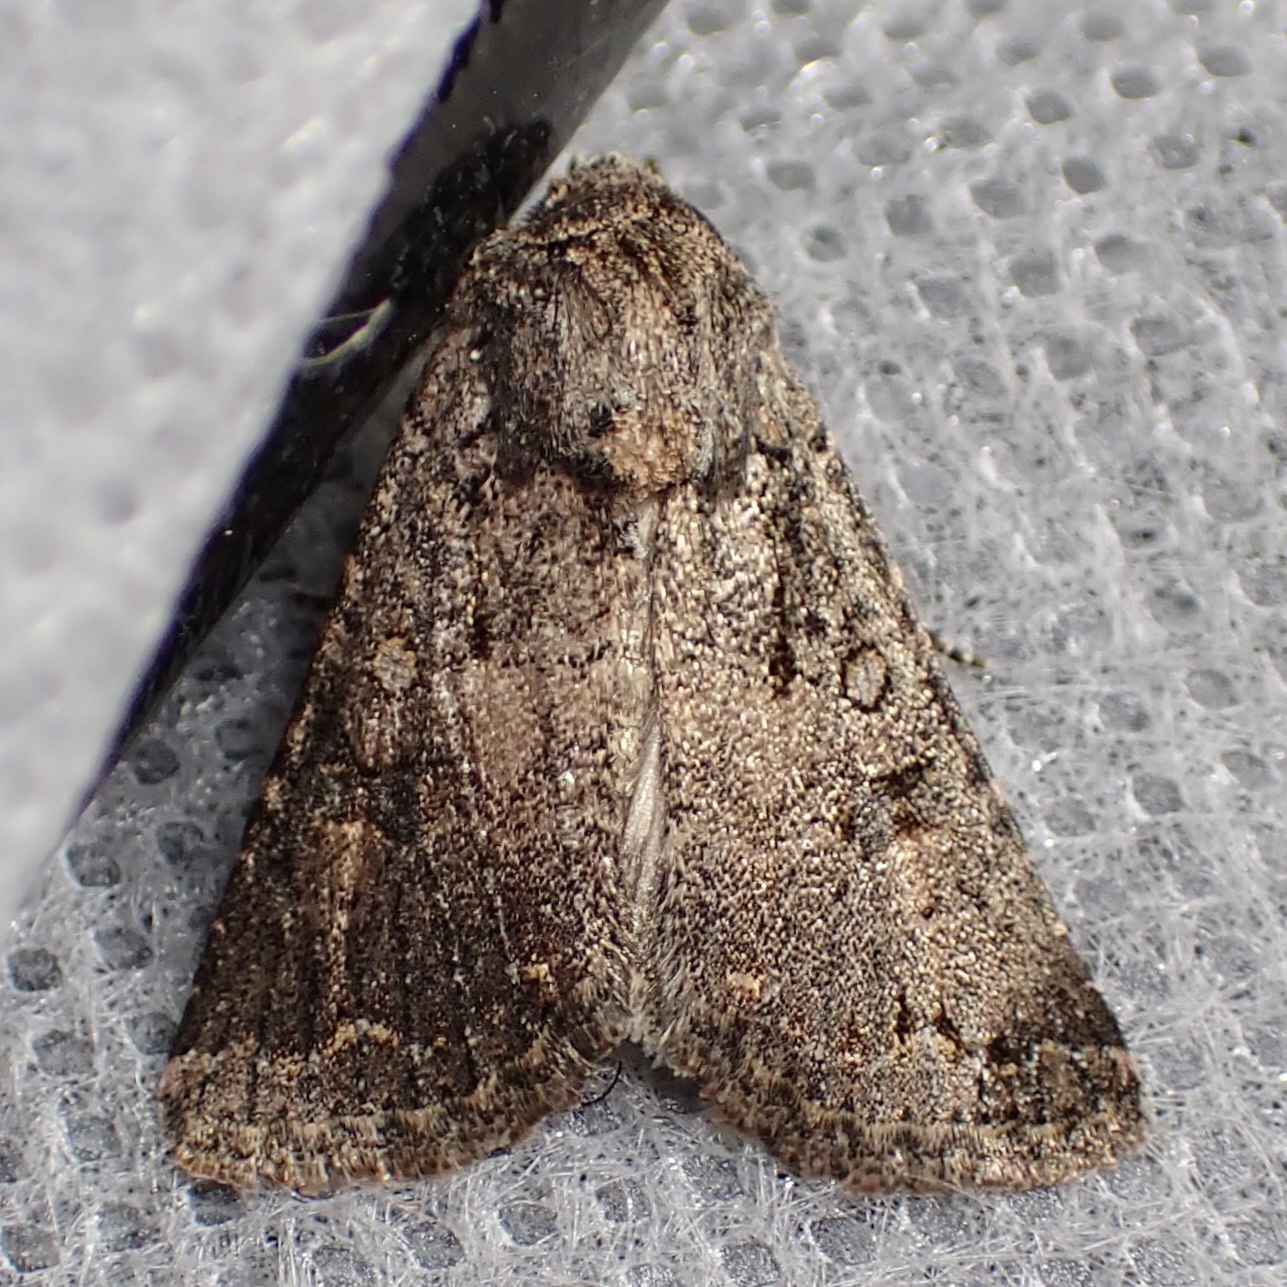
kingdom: Animalia
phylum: Arthropoda
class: Insecta
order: Lepidoptera
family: Noctuidae
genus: Trichopolia
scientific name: Trichopolia
